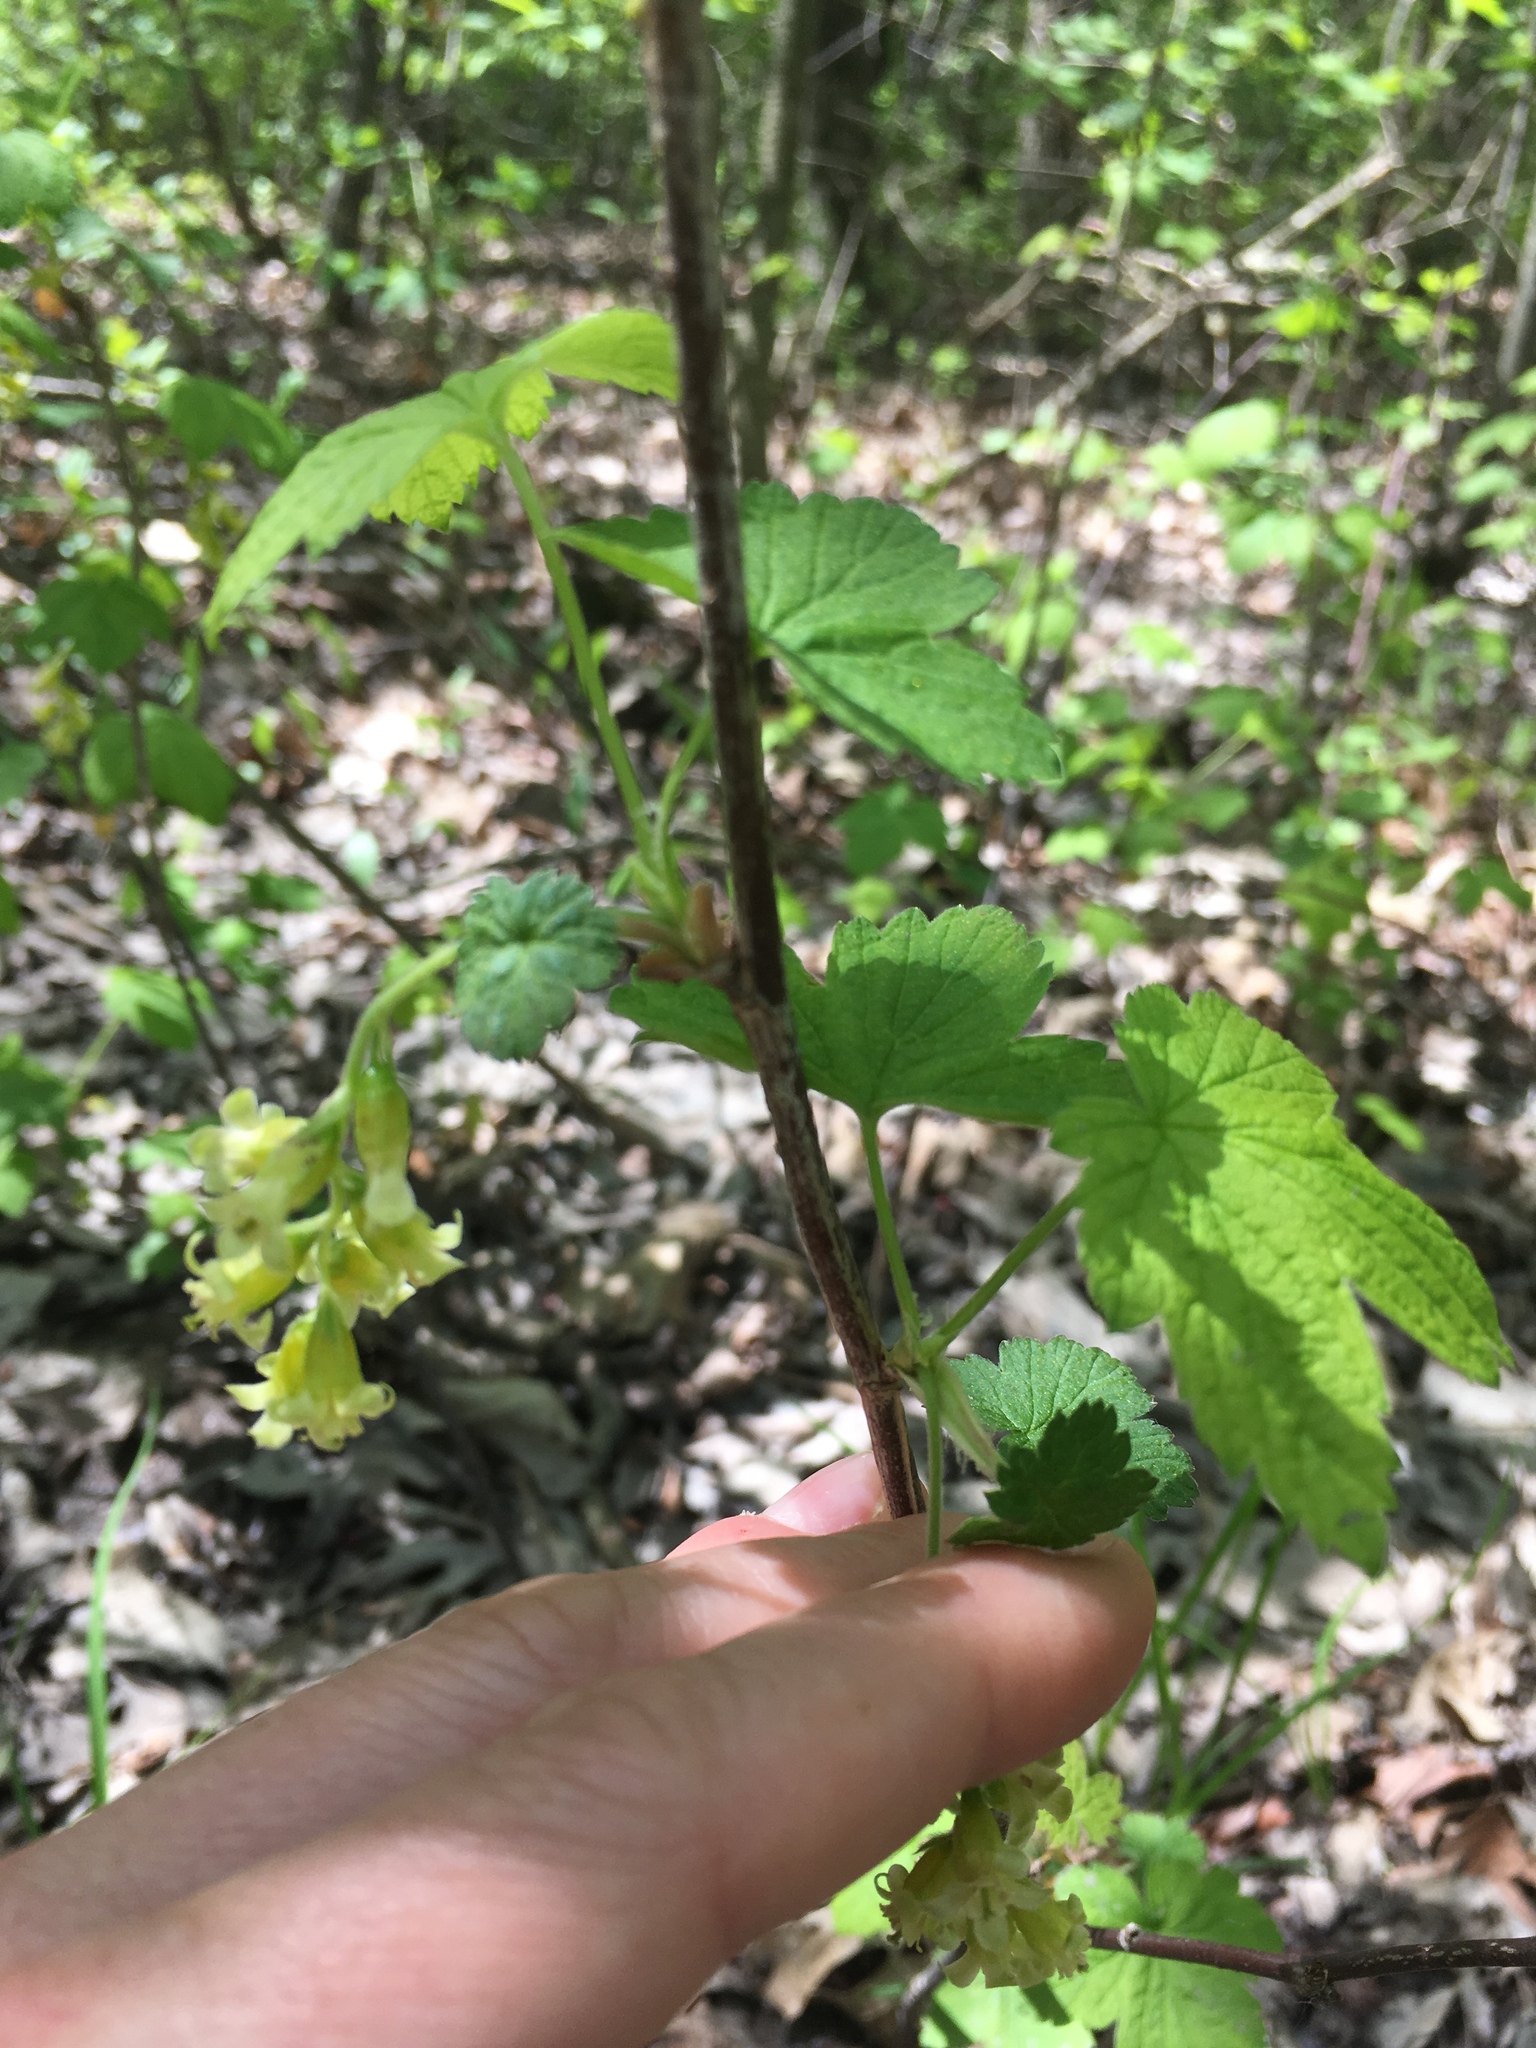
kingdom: Plantae
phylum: Tracheophyta
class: Magnoliopsida
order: Saxifragales
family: Grossulariaceae
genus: Ribes
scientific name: Ribes americanum
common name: American black currant
